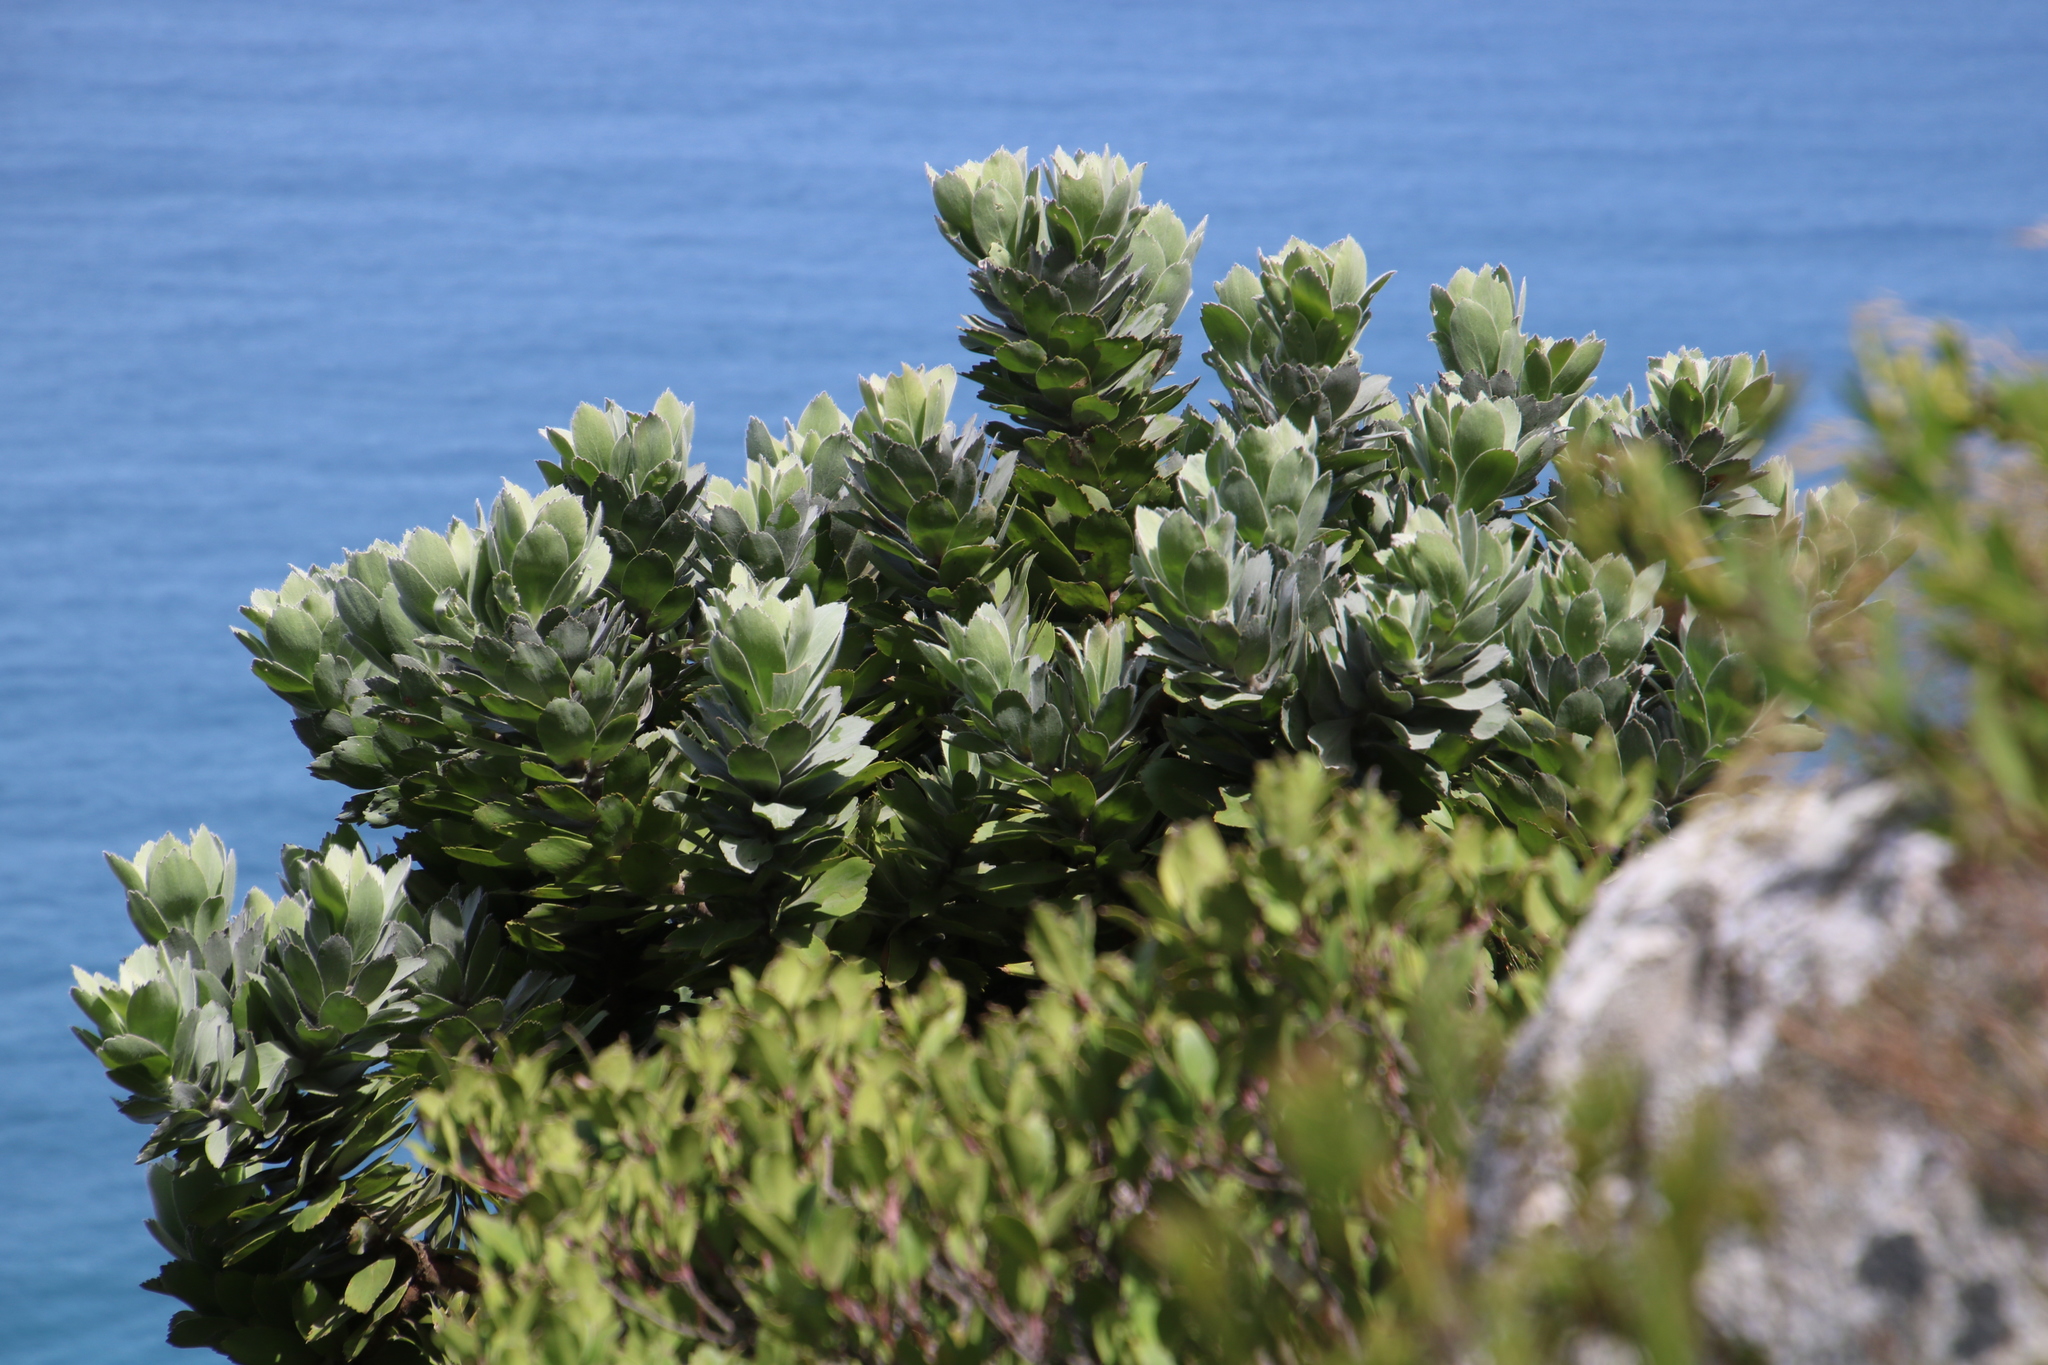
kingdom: Plantae
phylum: Tracheophyta
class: Magnoliopsida
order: Proteales
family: Proteaceae
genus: Leucospermum
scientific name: Leucospermum conocarpodendron
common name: Tree pincushion
